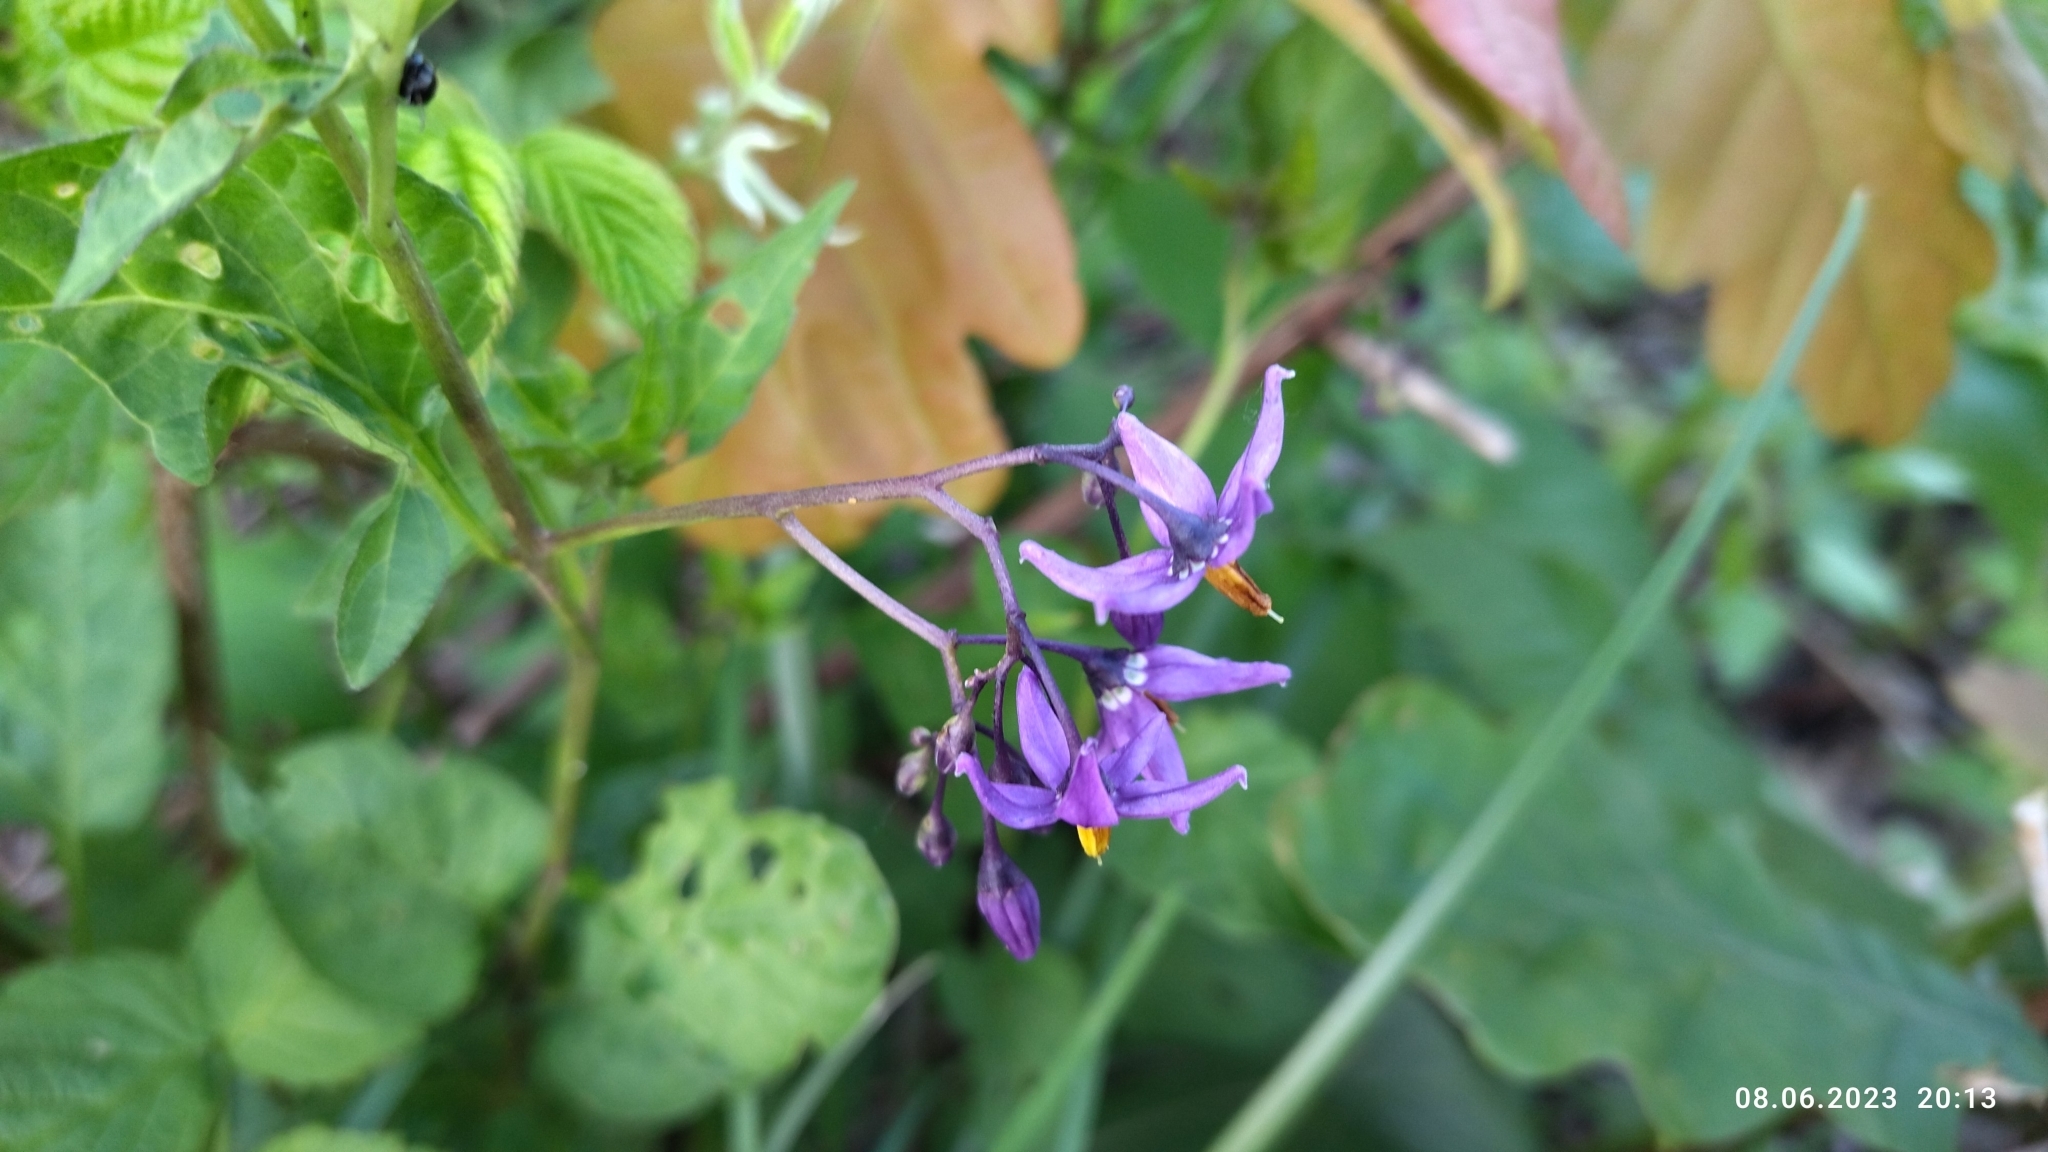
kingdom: Plantae
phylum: Tracheophyta
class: Magnoliopsida
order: Solanales
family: Solanaceae
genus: Solanum
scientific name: Solanum dulcamara
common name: Climbing nightshade
